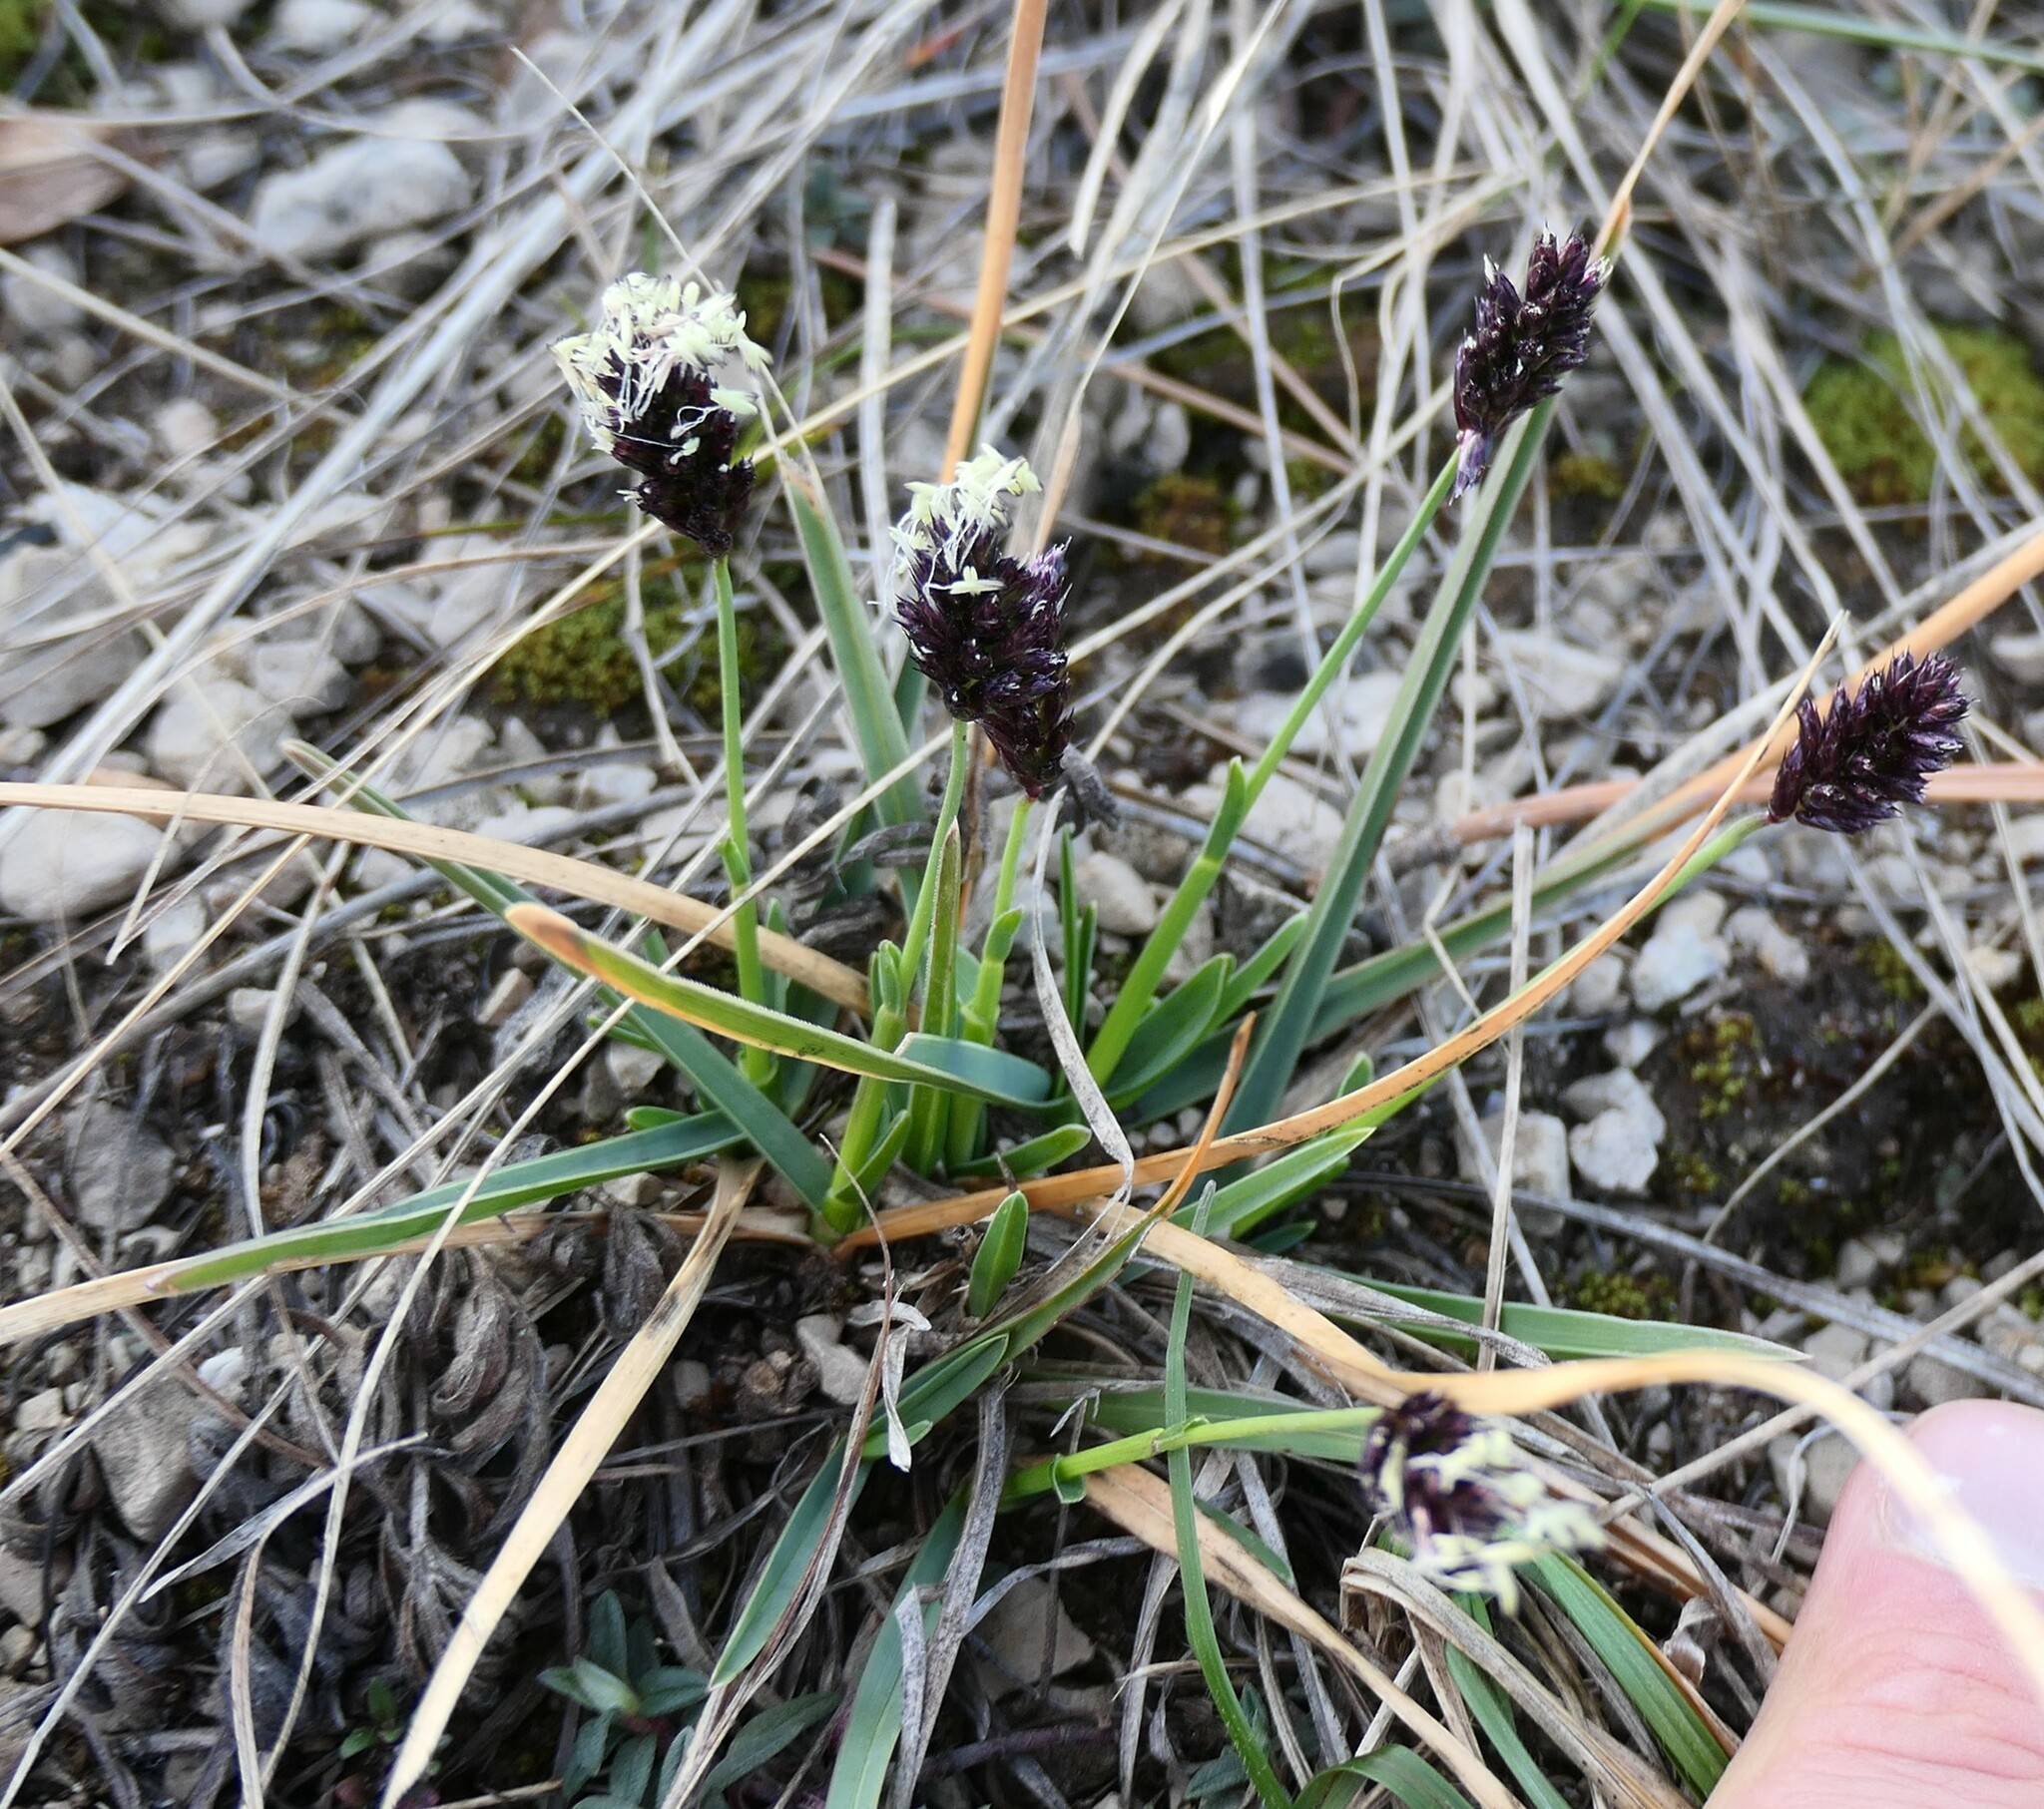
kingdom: Plantae
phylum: Tracheophyta
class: Liliopsida
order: Poales
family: Poaceae
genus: Sesleria
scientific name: Sesleria caerulea
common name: Blue moor-grass
